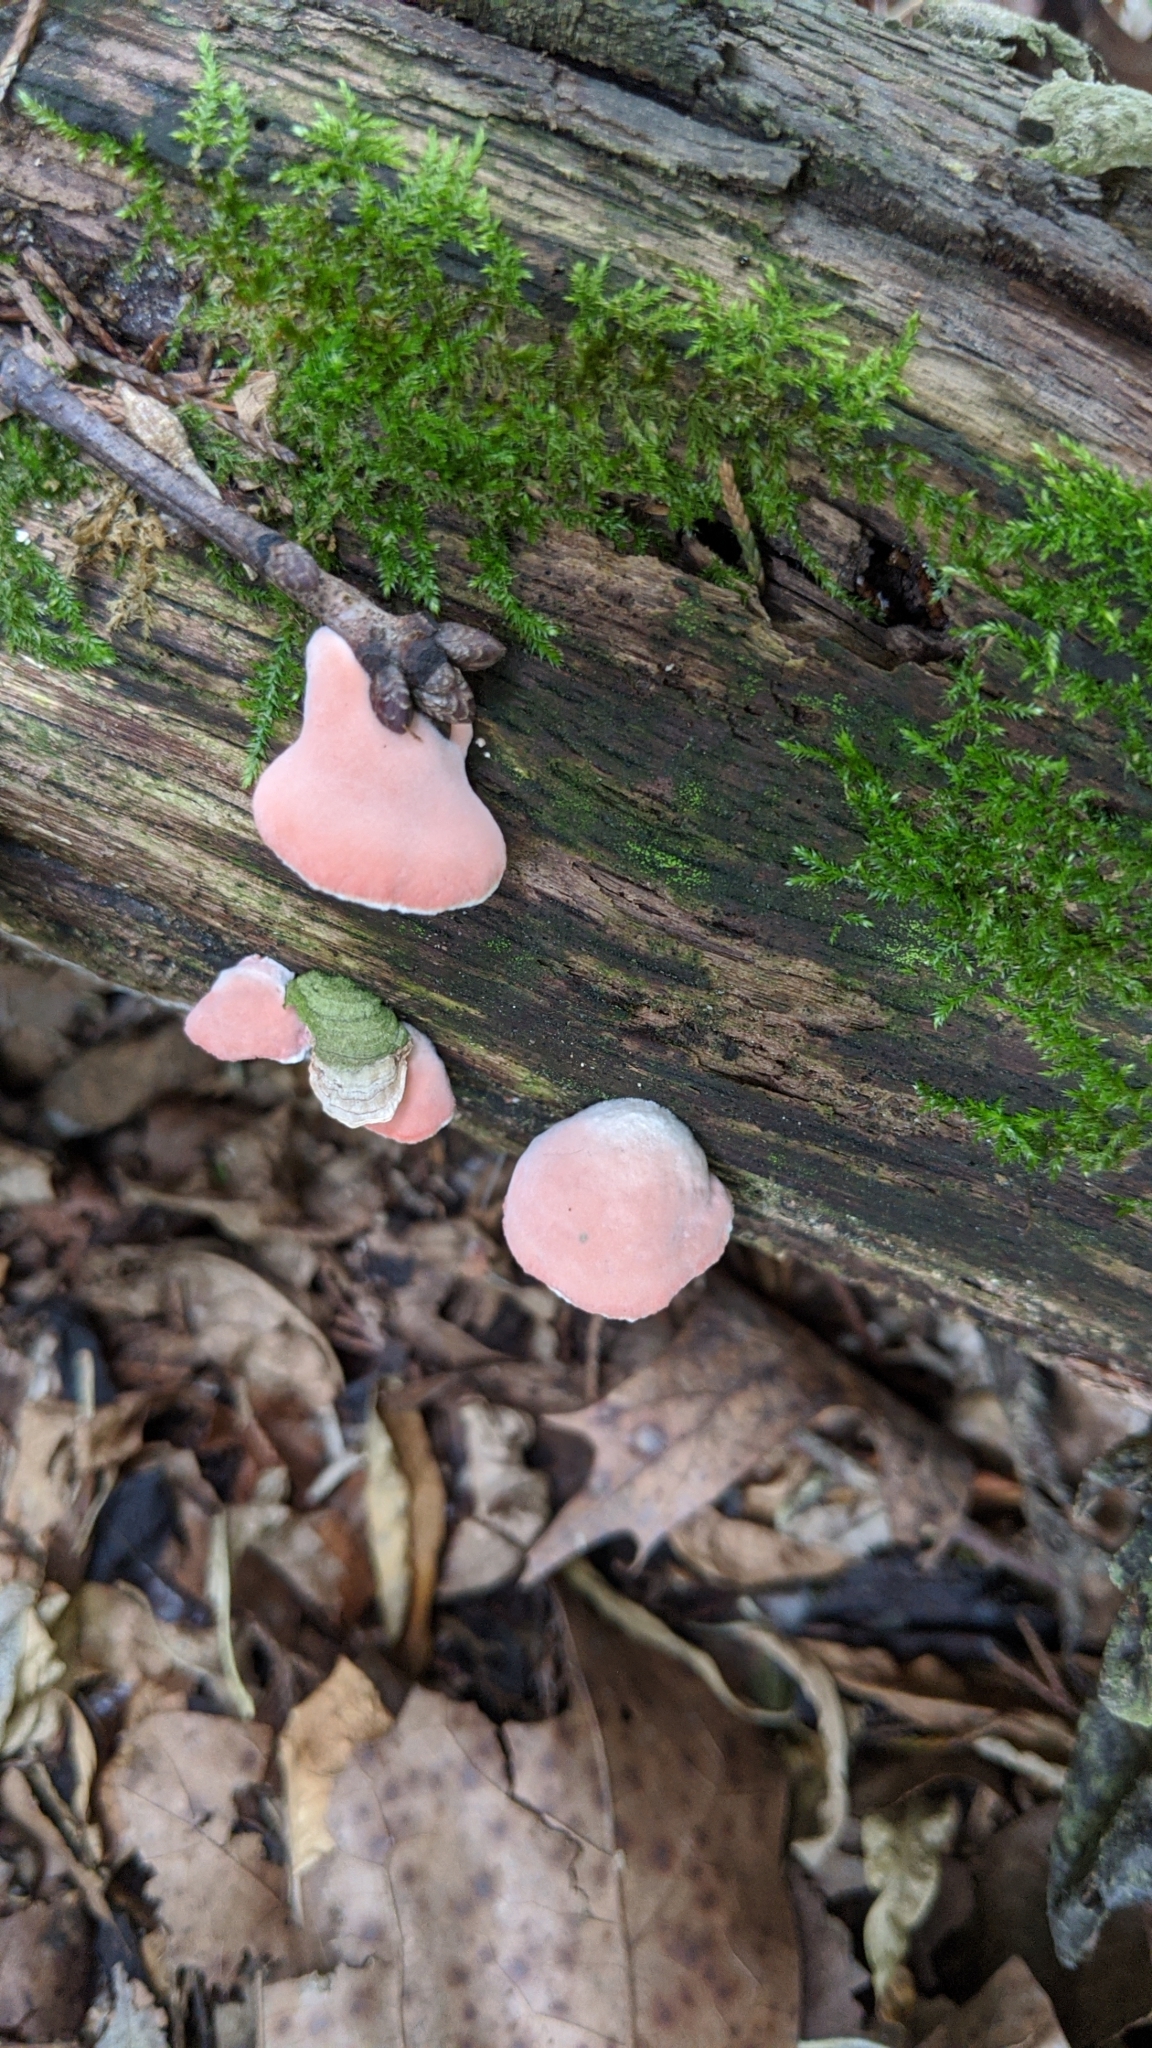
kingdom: Fungi
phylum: Basidiomycota
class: Agaricomycetes
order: Polyporales
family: Irpicaceae
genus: Byssomerulius
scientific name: Byssomerulius incarnatus
